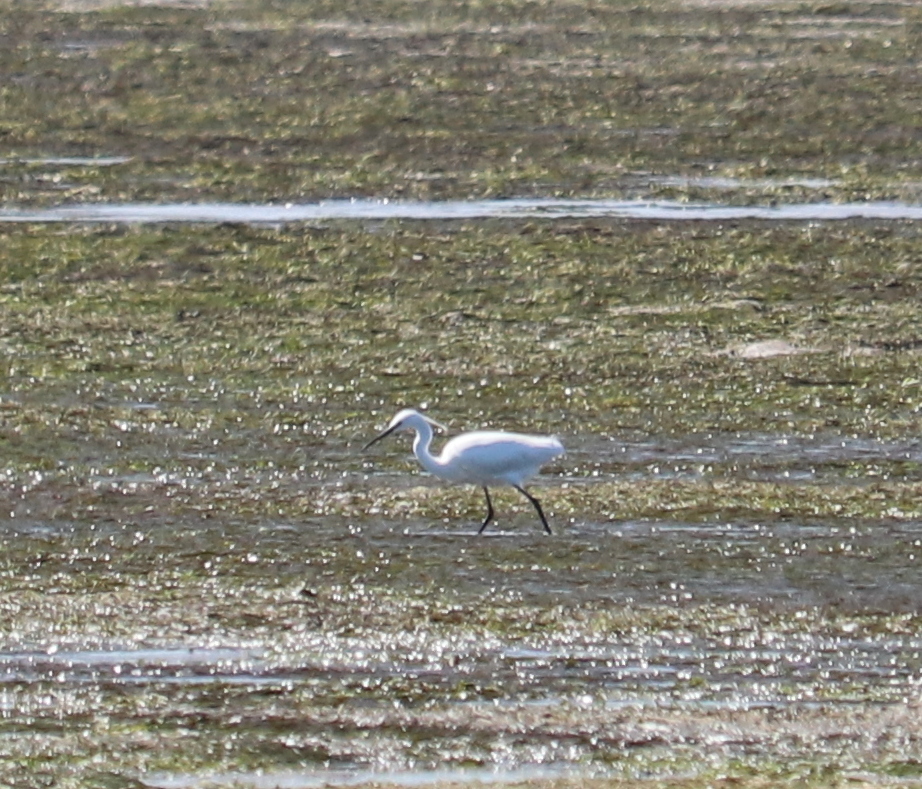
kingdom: Animalia
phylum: Chordata
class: Aves
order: Pelecaniformes
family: Ardeidae
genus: Egretta
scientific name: Egretta garzetta
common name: Little egret
